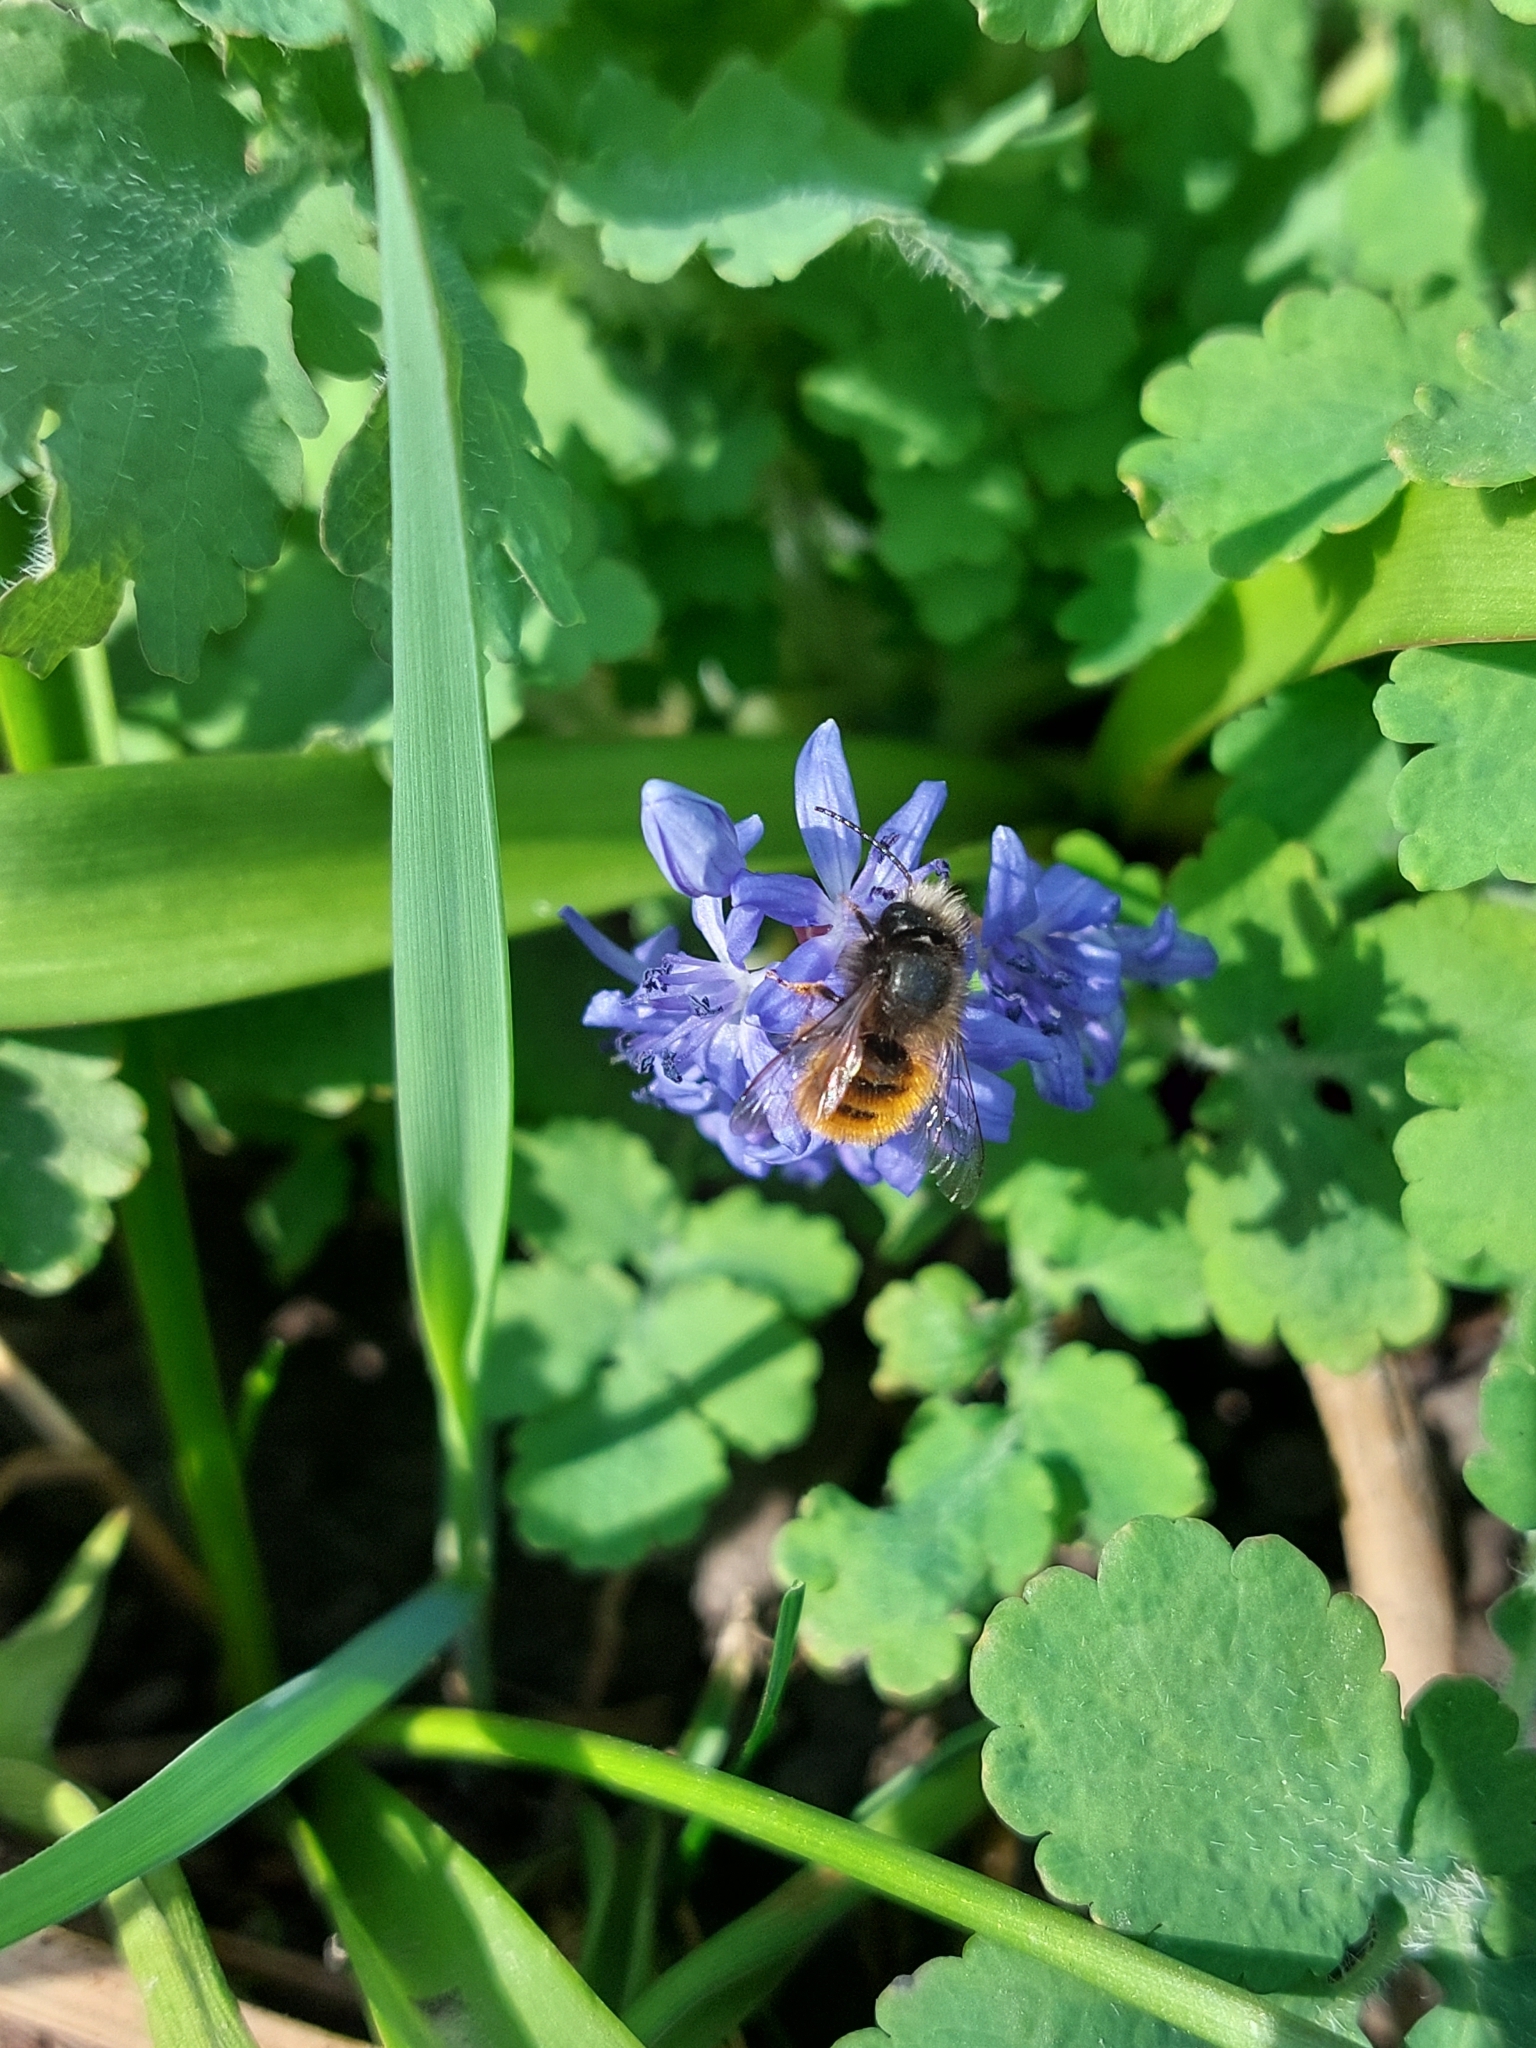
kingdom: Animalia
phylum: Arthropoda
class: Insecta
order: Hymenoptera
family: Megachilidae
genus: Osmia
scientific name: Osmia cornuta
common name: Mason bee
